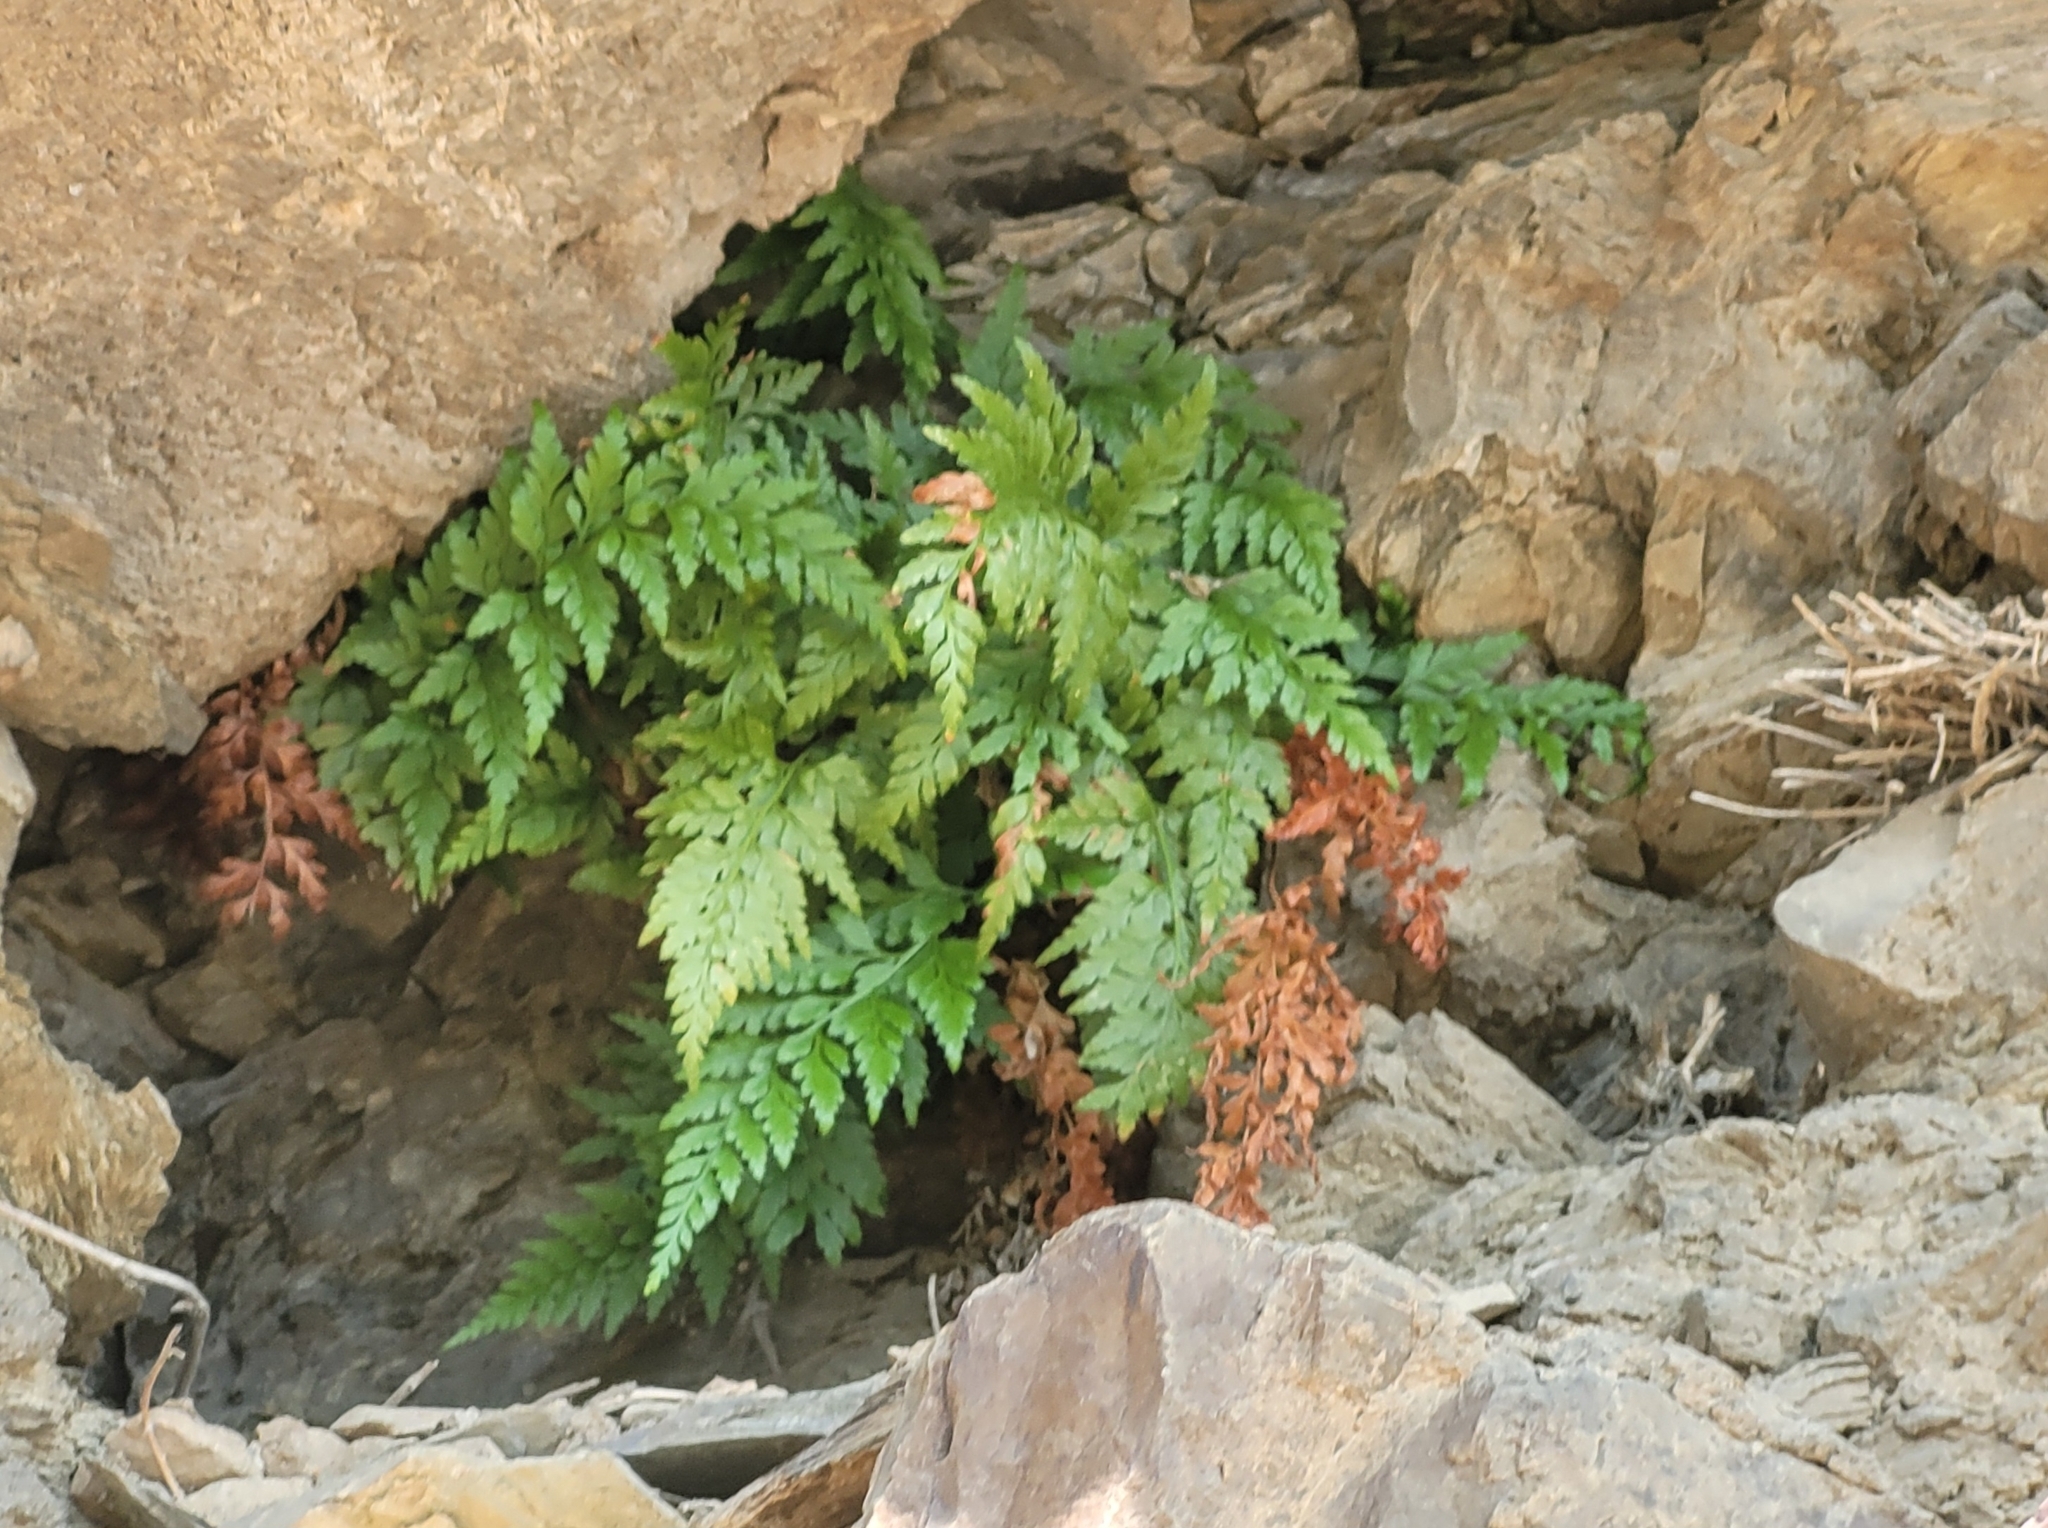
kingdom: Plantae
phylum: Tracheophyta
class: Polypodiopsida
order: Polypodiales
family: Aspleniaceae
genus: Asplenium
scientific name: Asplenium adiantum-nigrum
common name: Black spleenwort
